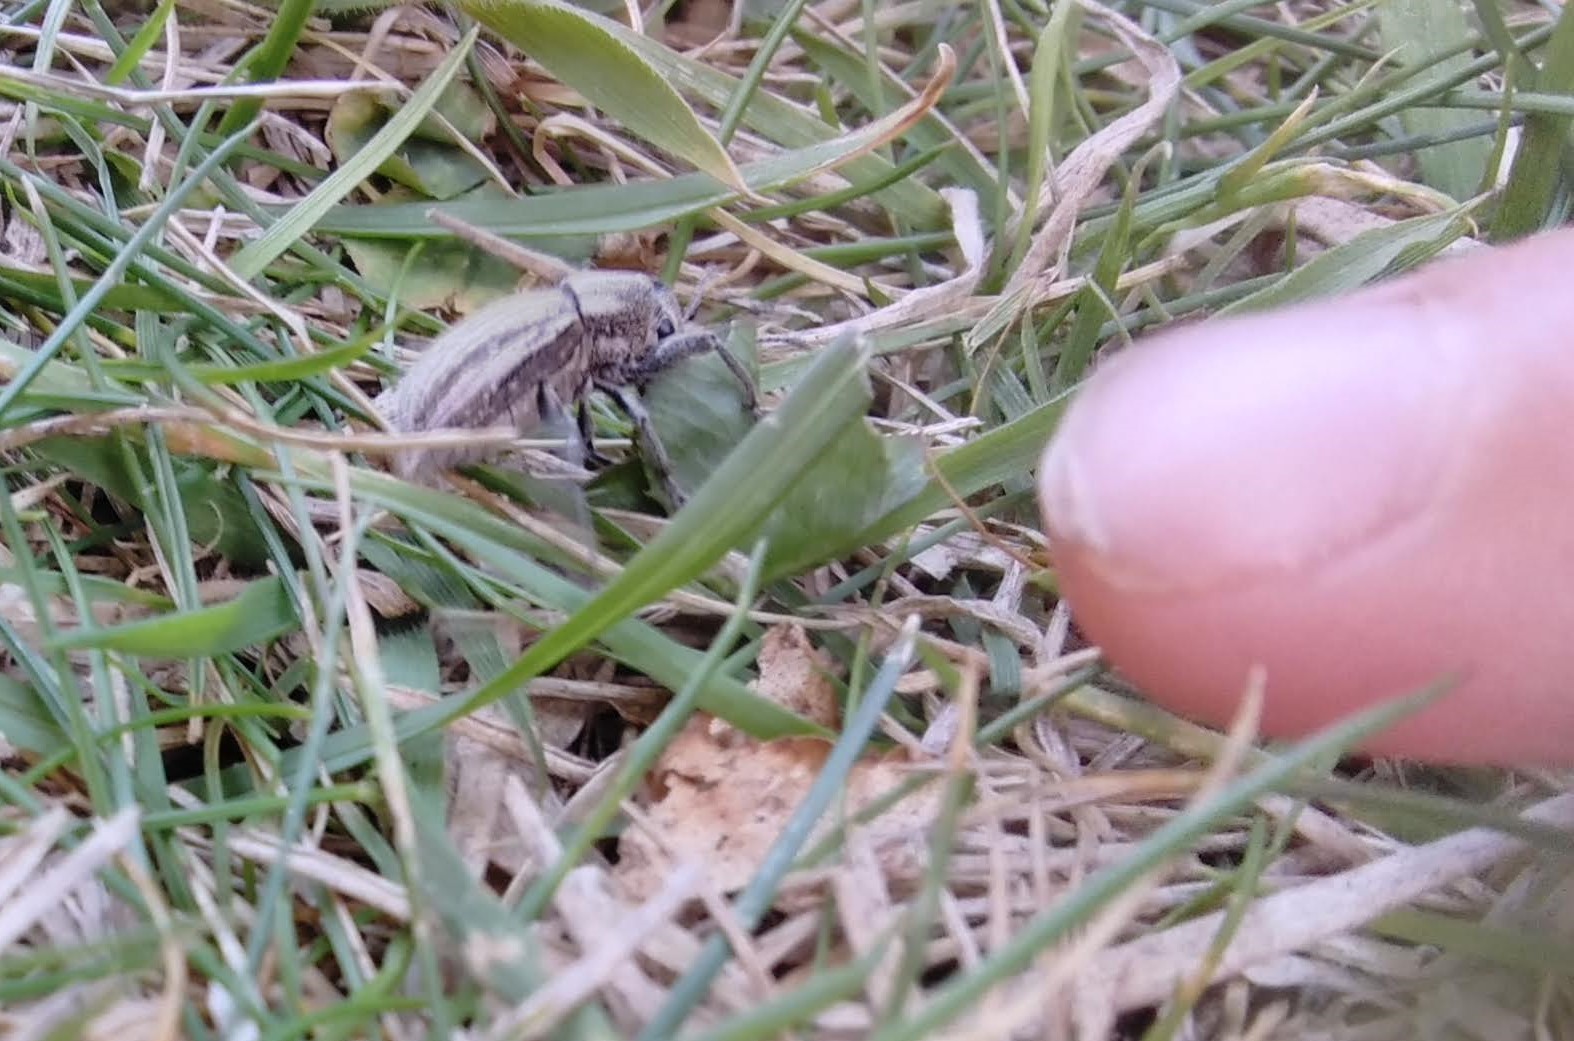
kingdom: Animalia
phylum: Arthropoda
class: Insecta
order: Coleoptera
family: Curculionidae
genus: Naupactus
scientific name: Naupactus leucoloma
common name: Whitefringed beetle
